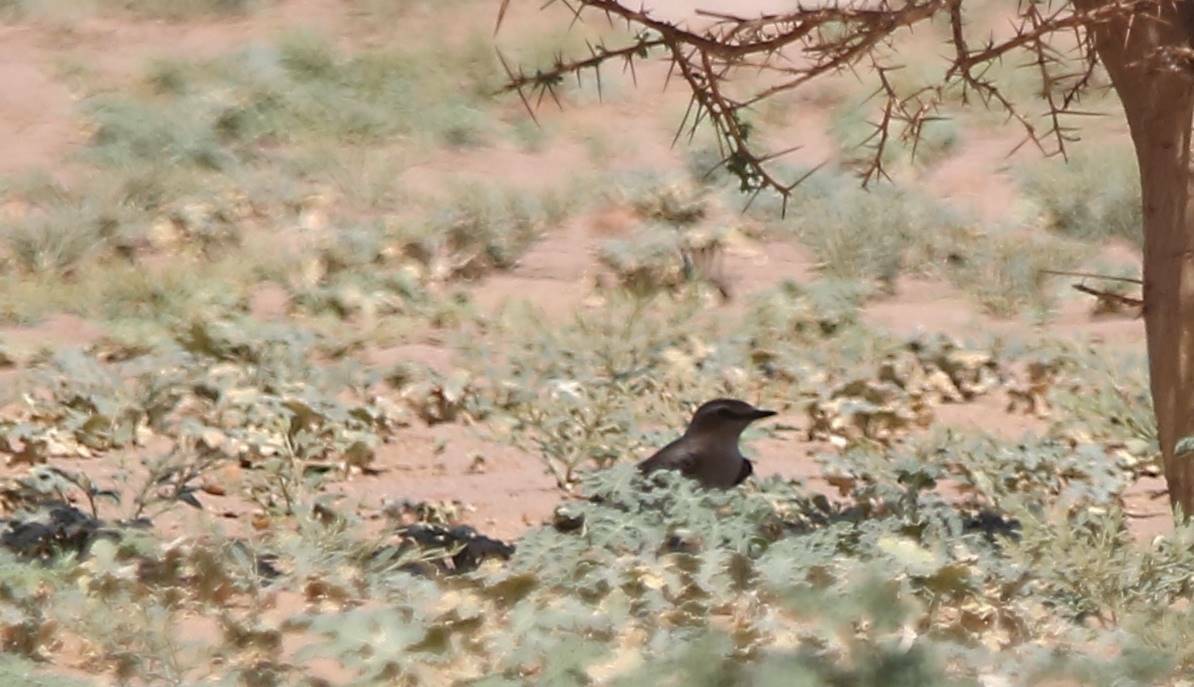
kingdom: Animalia
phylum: Chordata
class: Aves
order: Passeriformes
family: Muscicapidae
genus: Oenanthe
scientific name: Oenanthe isabellina
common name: Isabelline wheatear
